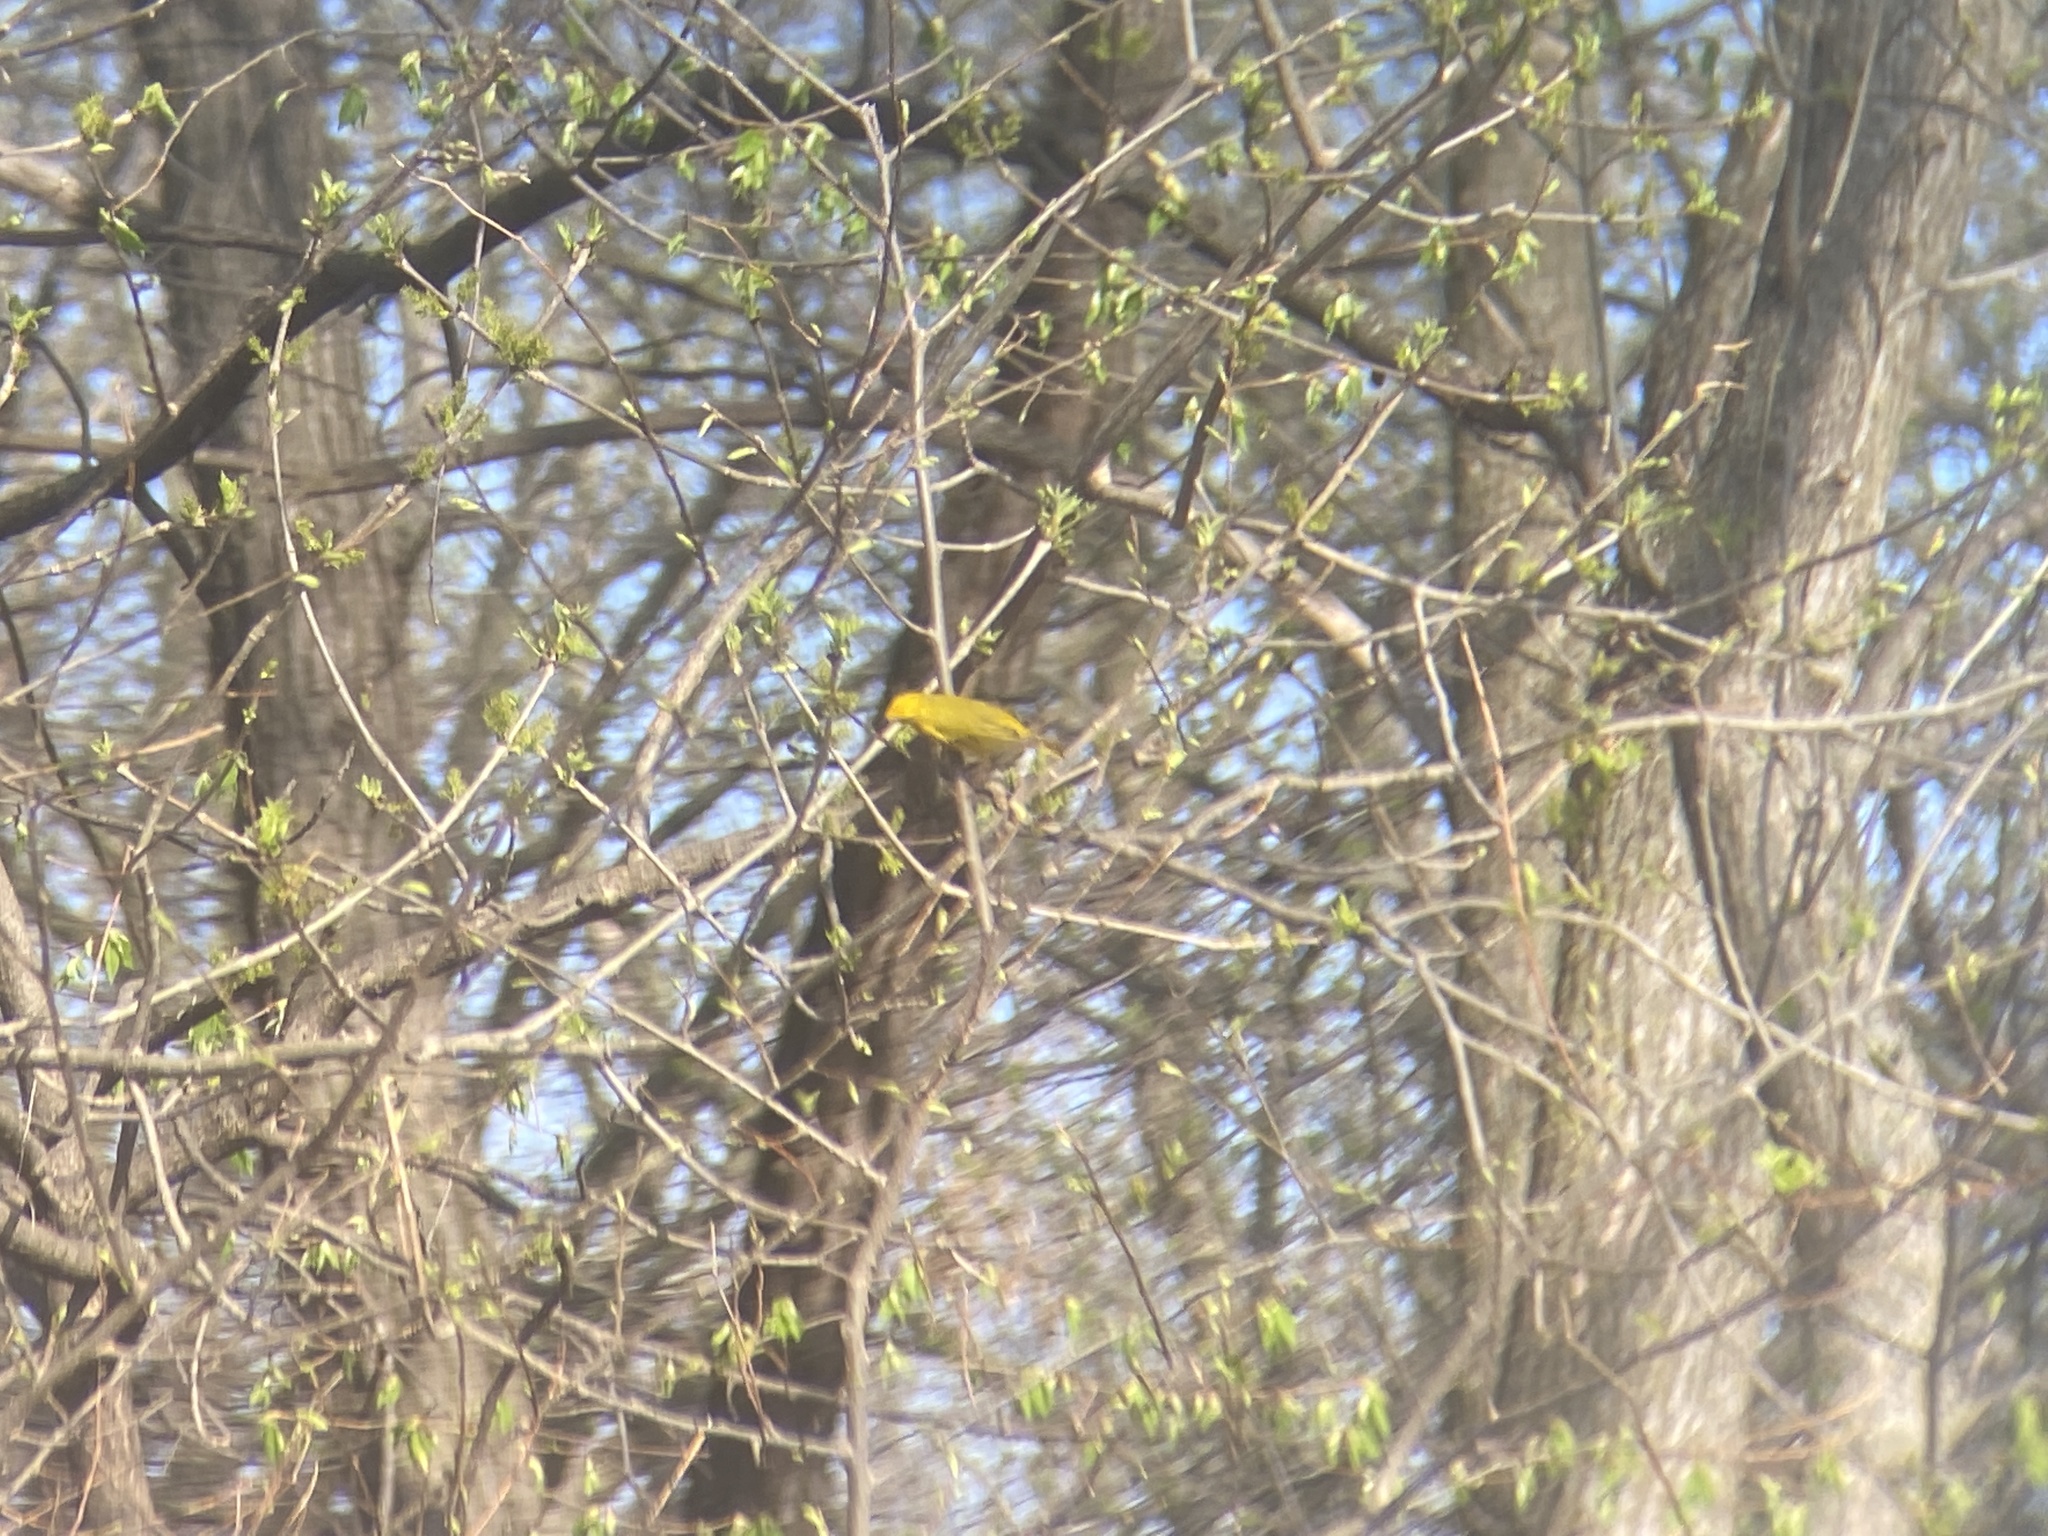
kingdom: Animalia
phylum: Chordata
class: Aves
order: Passeriformes
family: Parulidae
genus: Setophaga
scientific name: Setophaga petechia
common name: Yellow warbler
